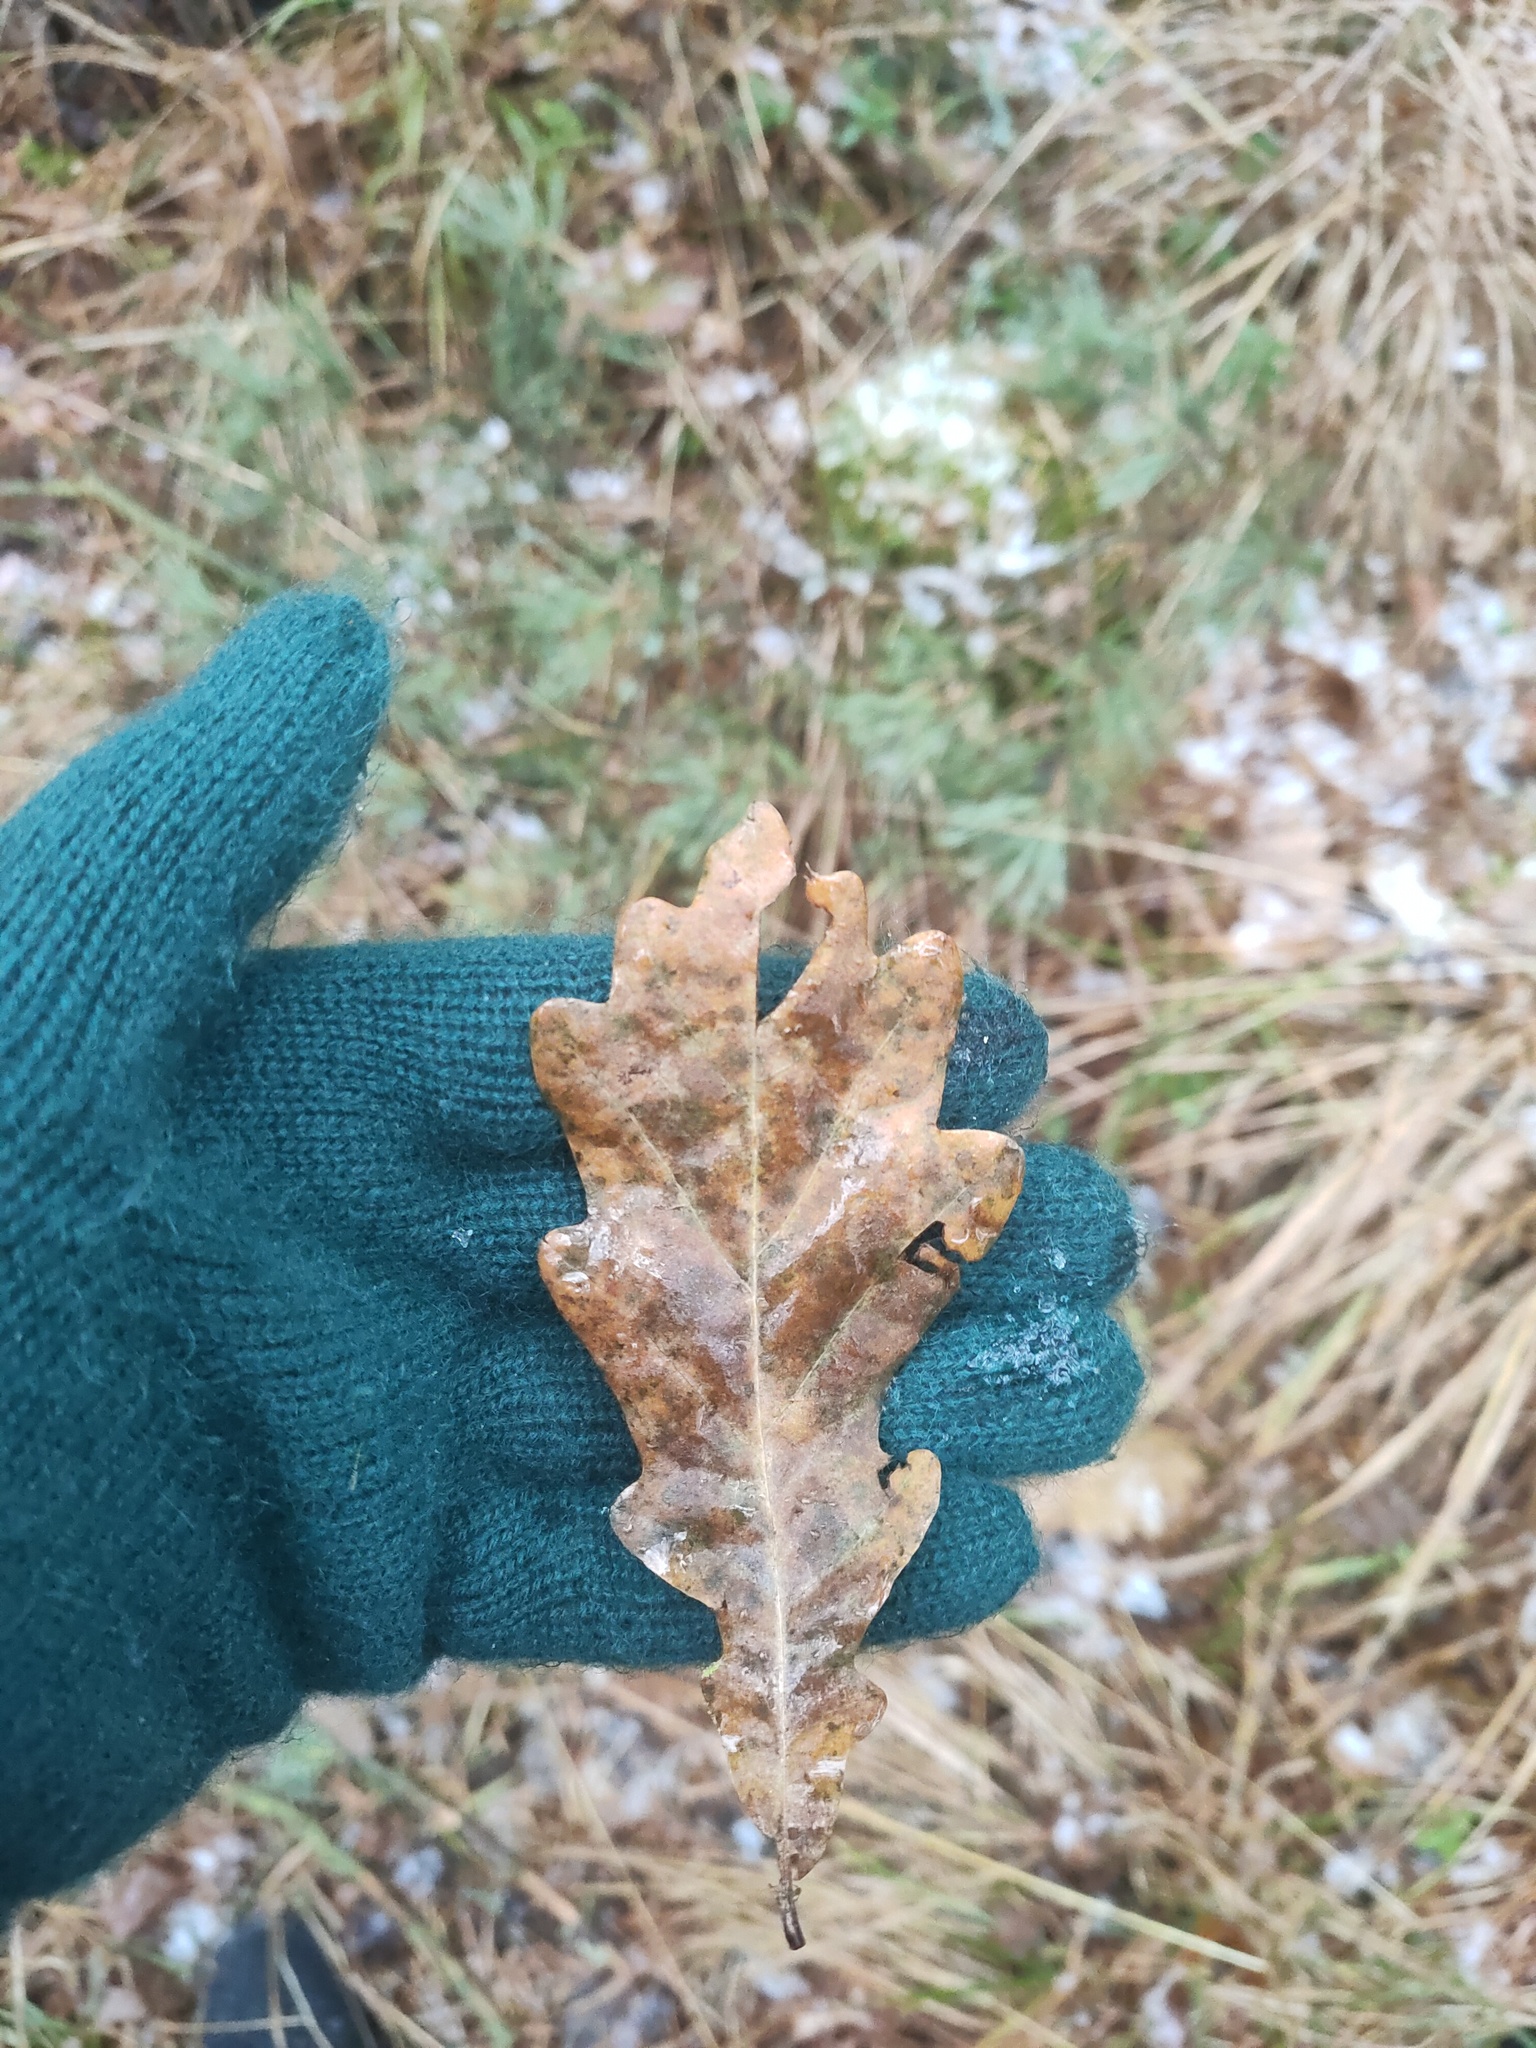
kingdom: Plantae
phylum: Tracheophyta
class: Magnoliopsida
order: Fagales
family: Fagaceae
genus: Quercus
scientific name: Quercus robur
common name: Pedunculate oak
